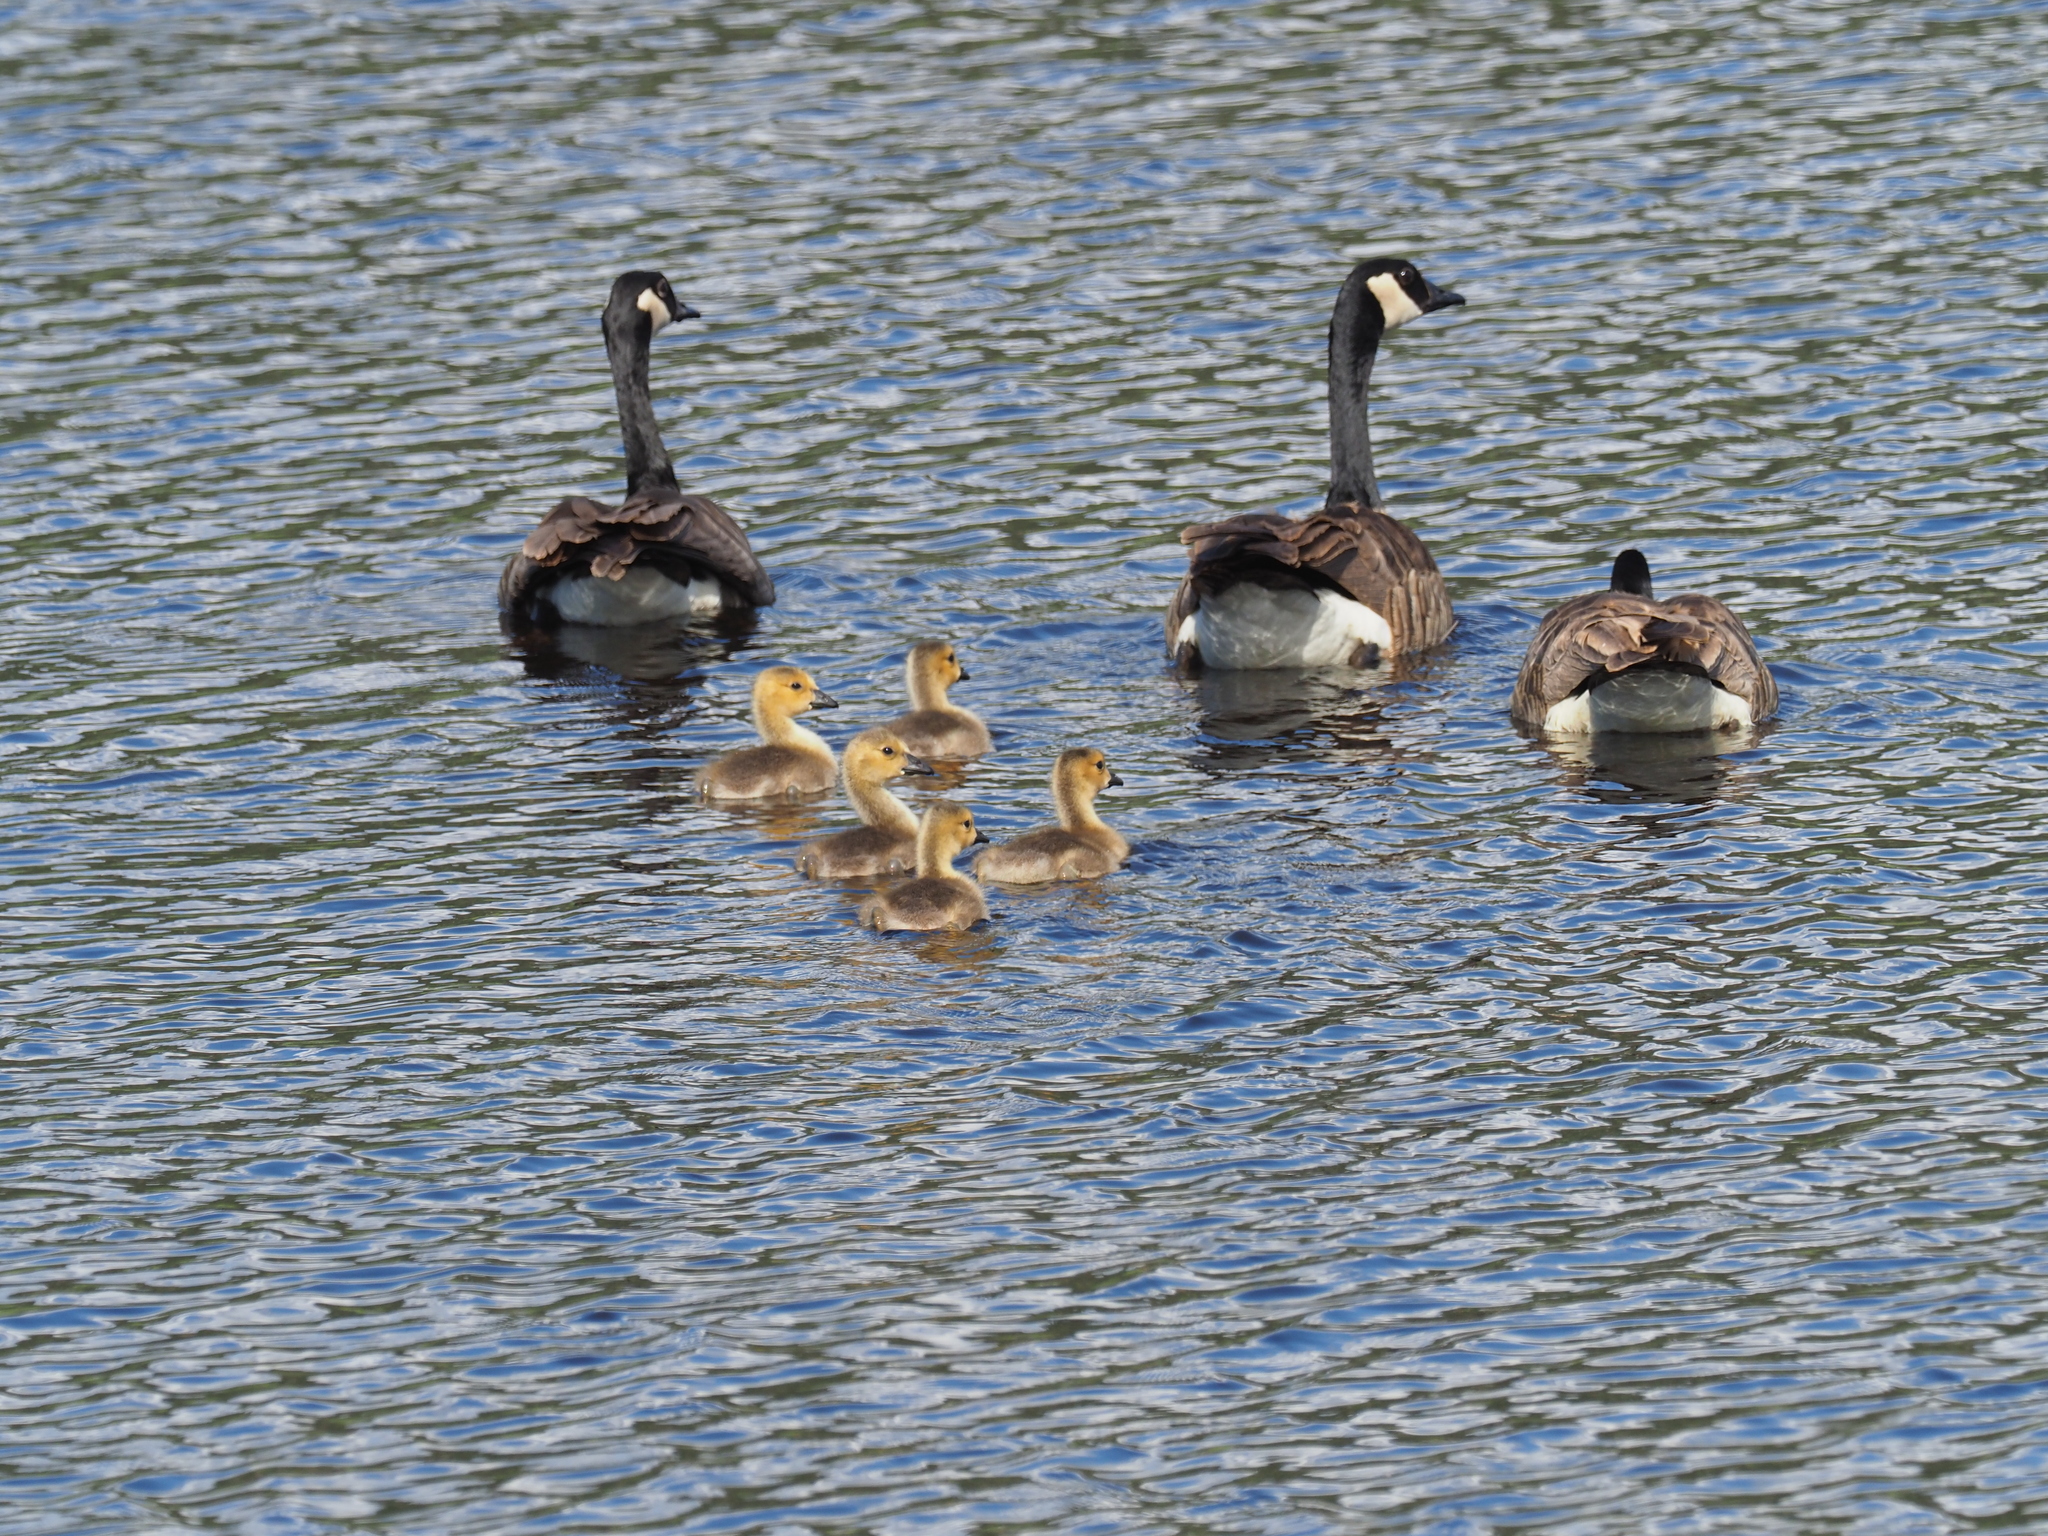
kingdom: Animalia
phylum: Chordata
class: Aves
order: Anseriformes
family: Anatidae
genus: Branta
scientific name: Branta canadensis
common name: Canada goose
